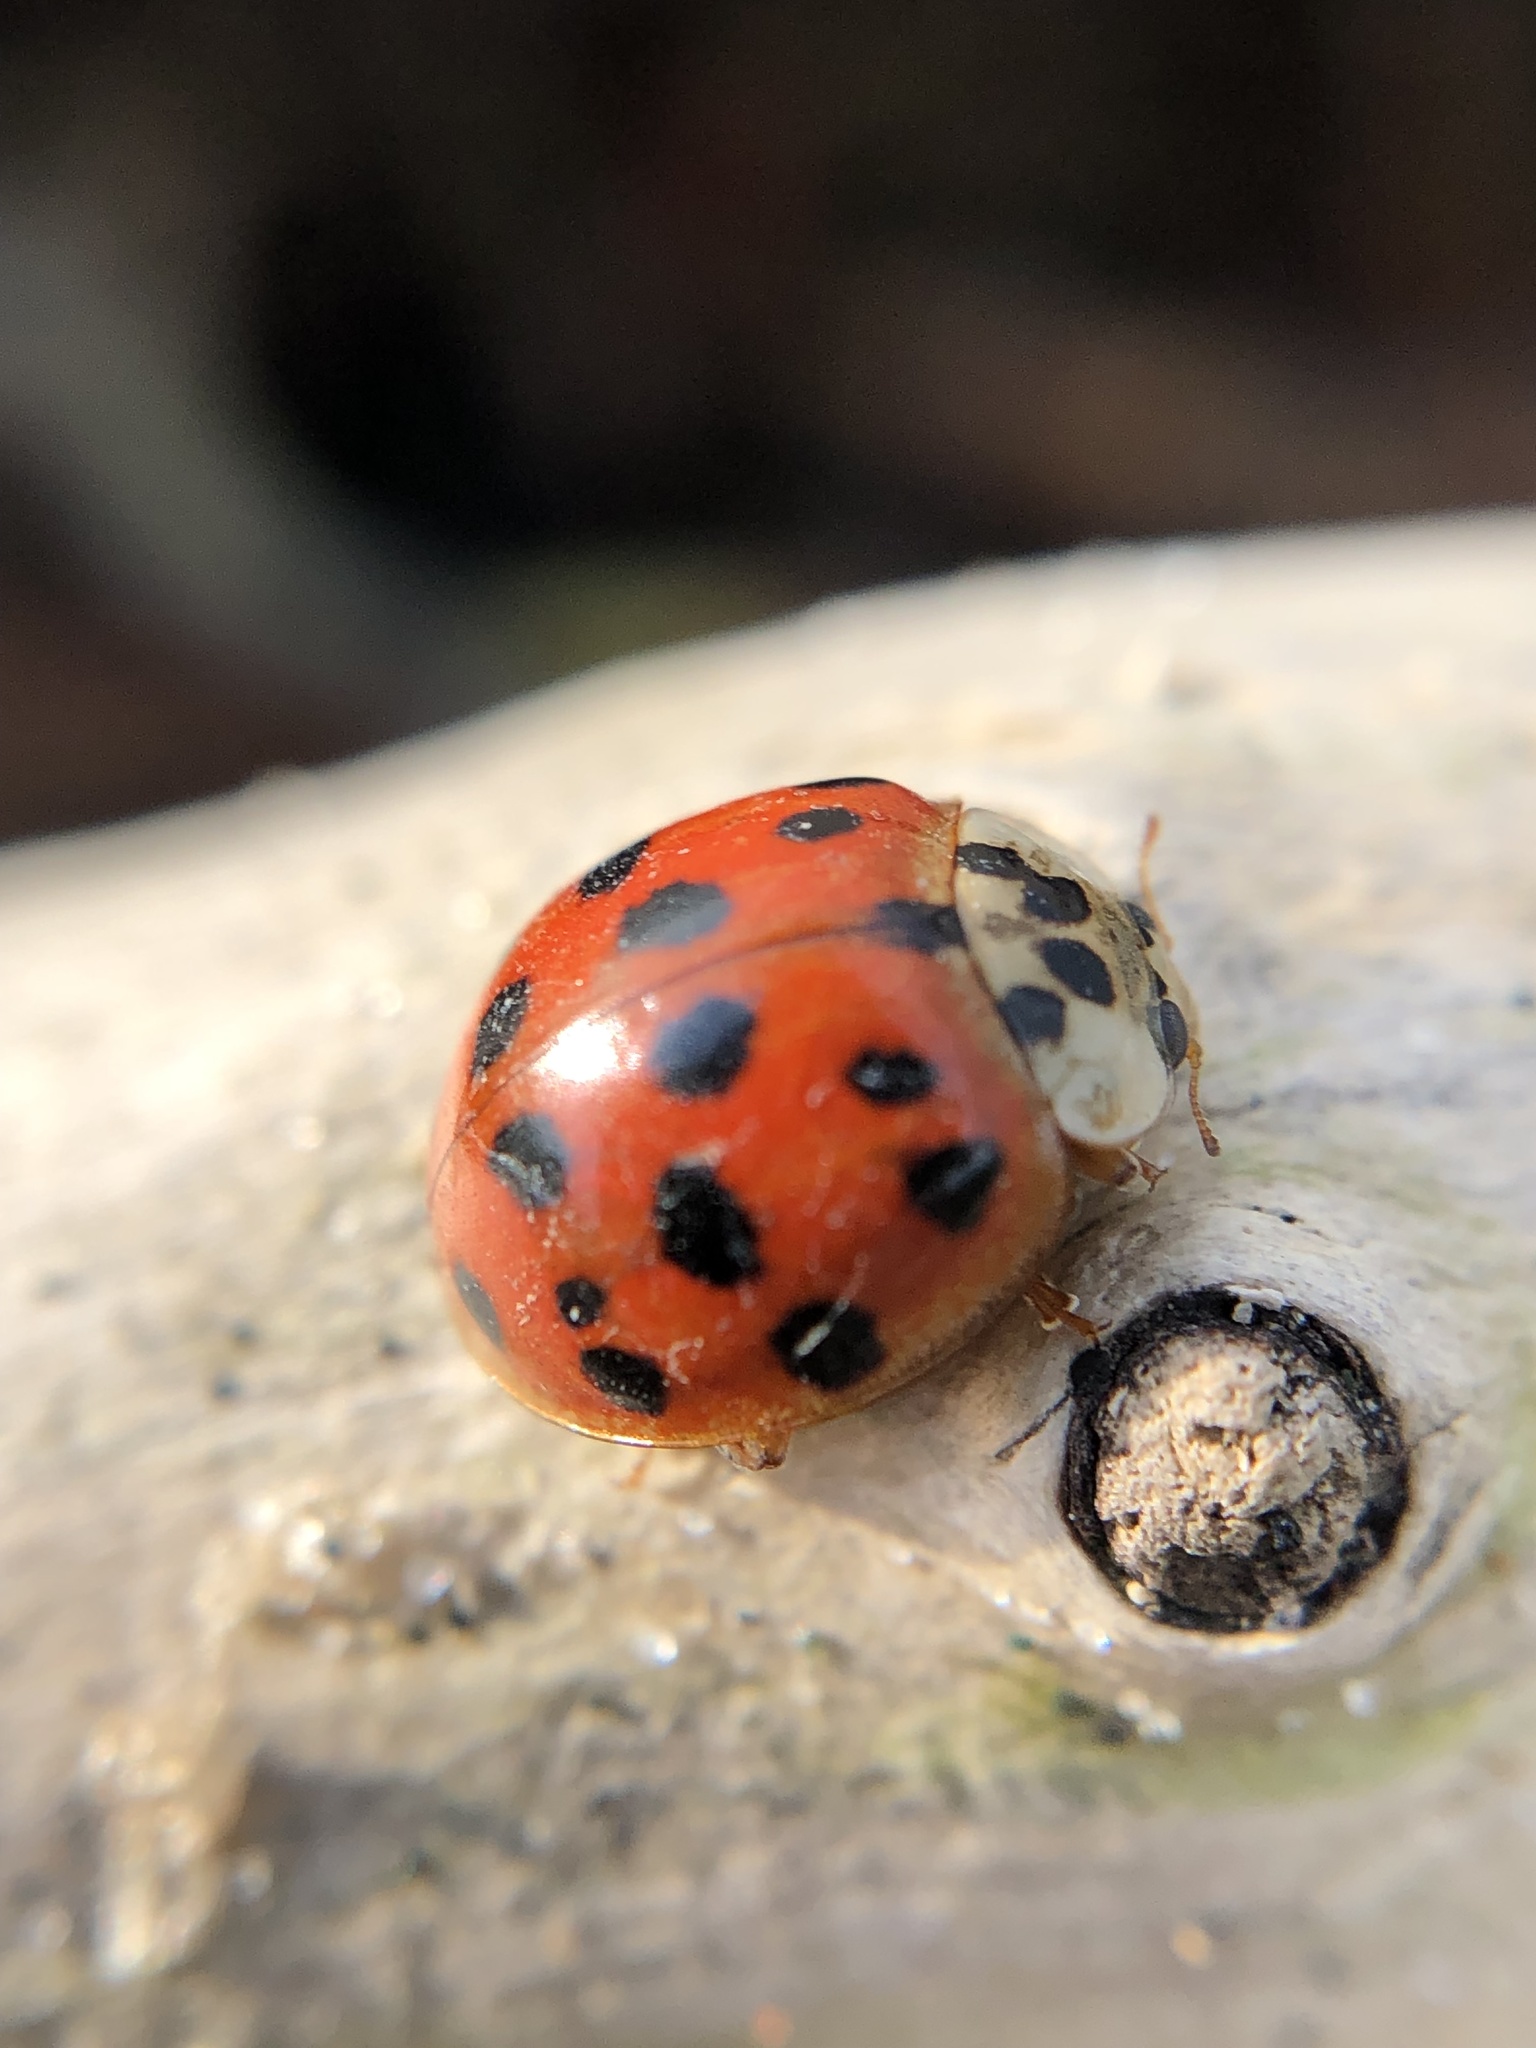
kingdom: Animalia
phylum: Arthropoda
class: Insecta
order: Coleoptera
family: Coccinellidae
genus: Harmonia
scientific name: Harmonia axyridis
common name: Harlequin ladybird
